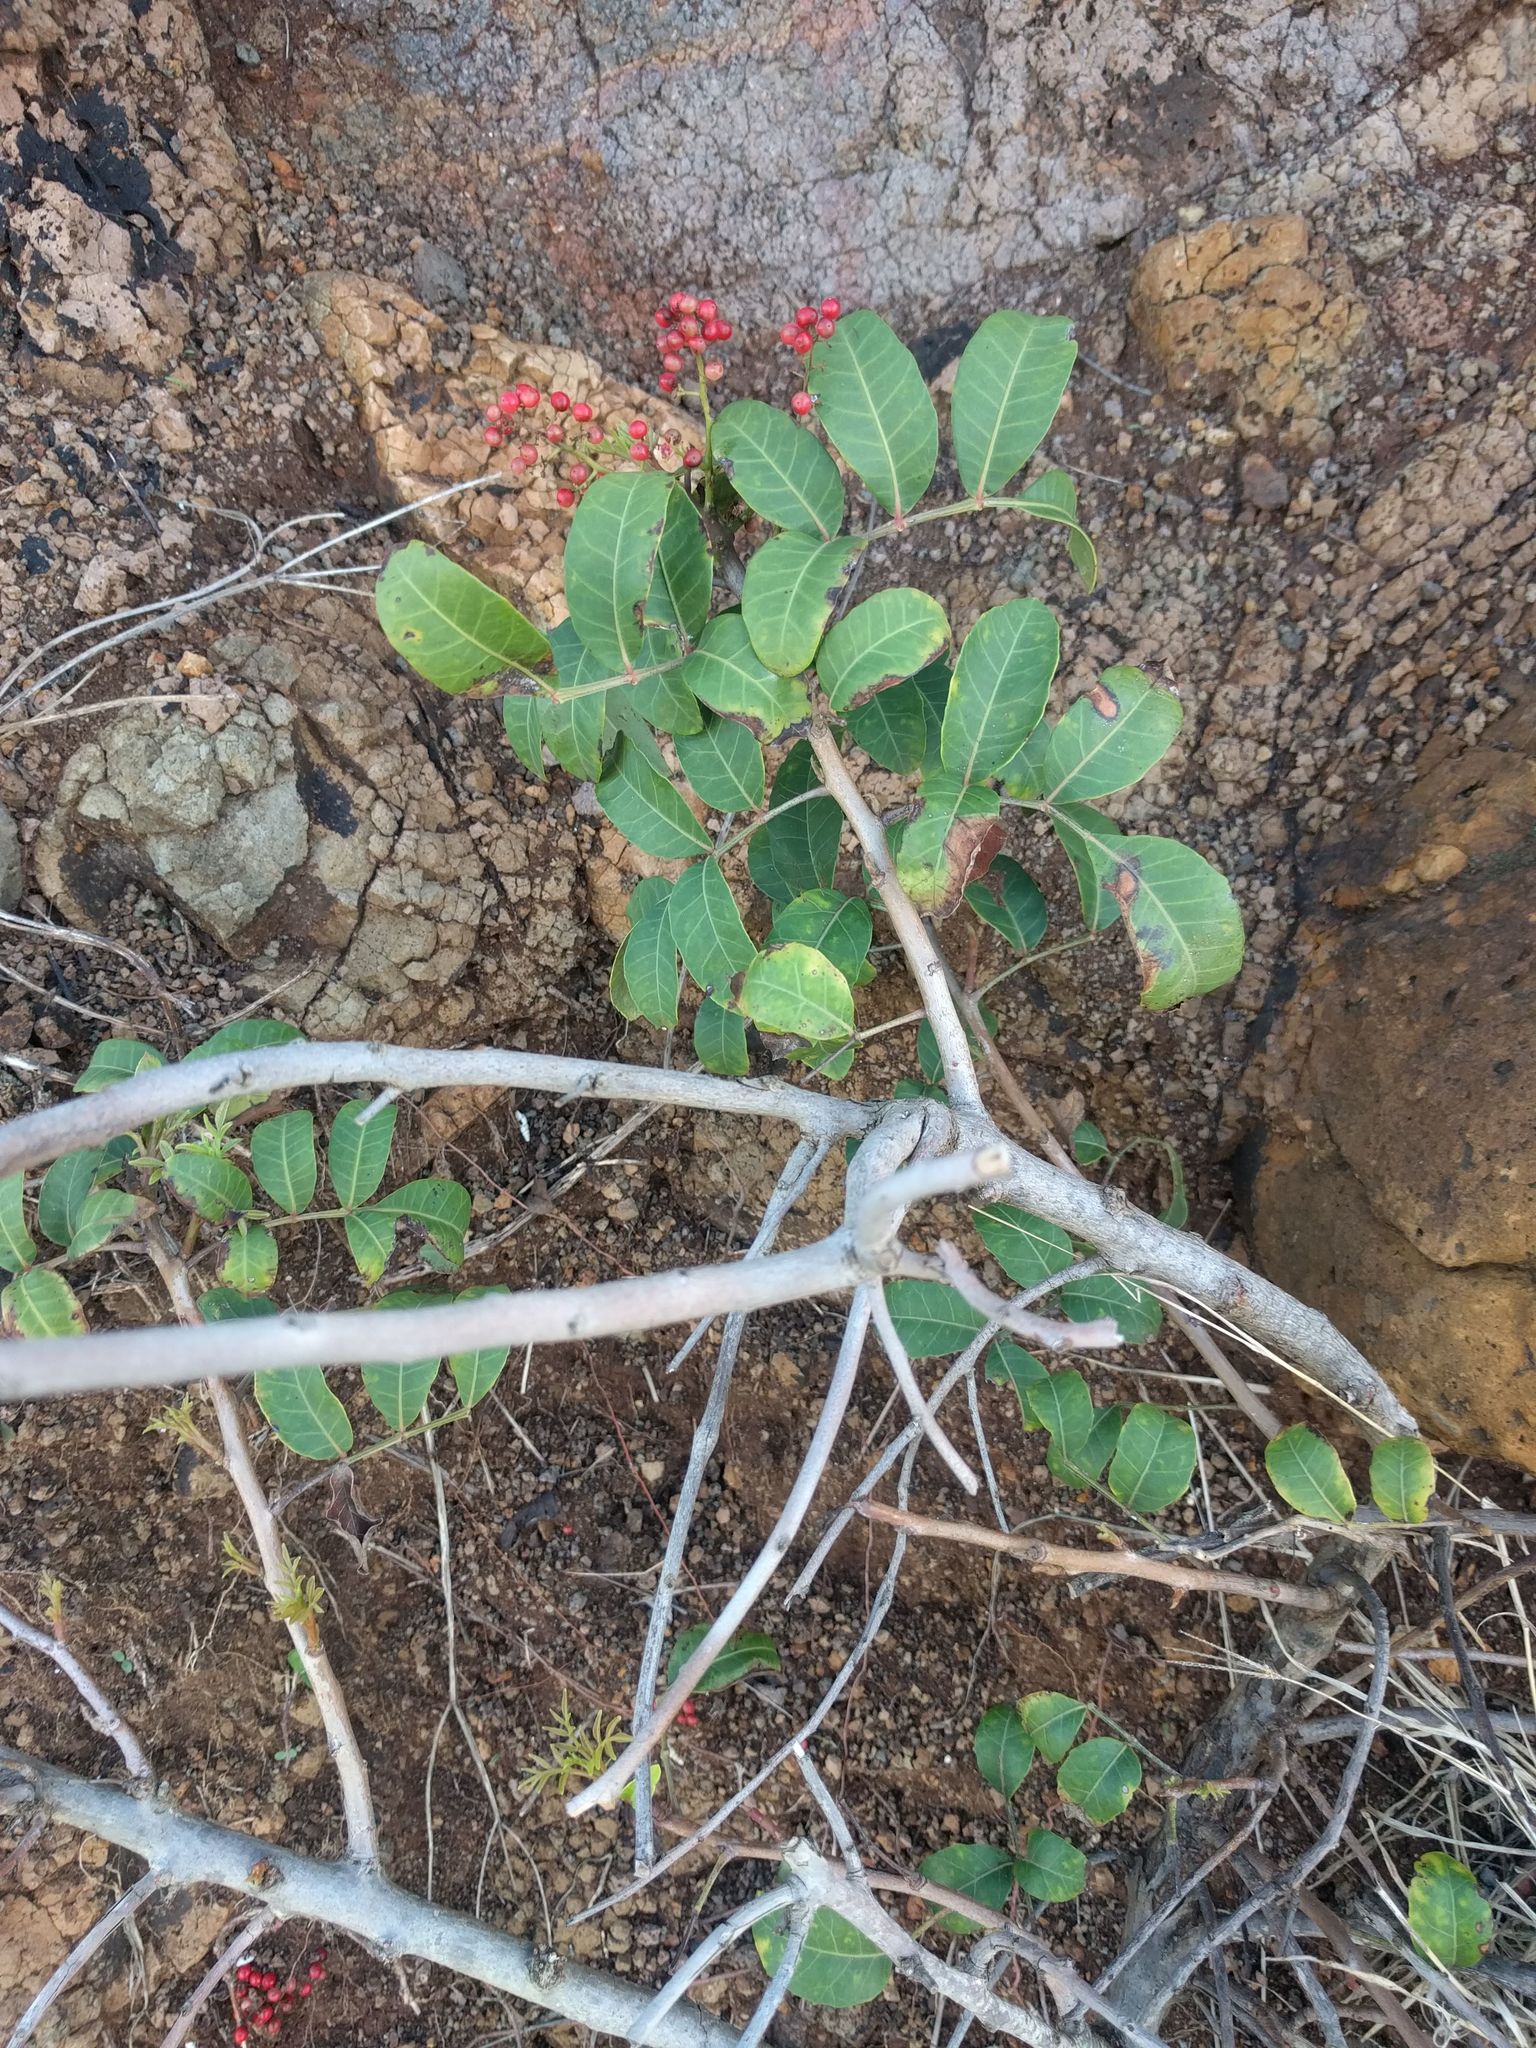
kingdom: Plantae
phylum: Tracheophyta
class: Magnoliopsida
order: Sapindales
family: Anacardiaceae
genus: Schinus
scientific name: Schinus terebinthifolia
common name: Brazilian peppertree
